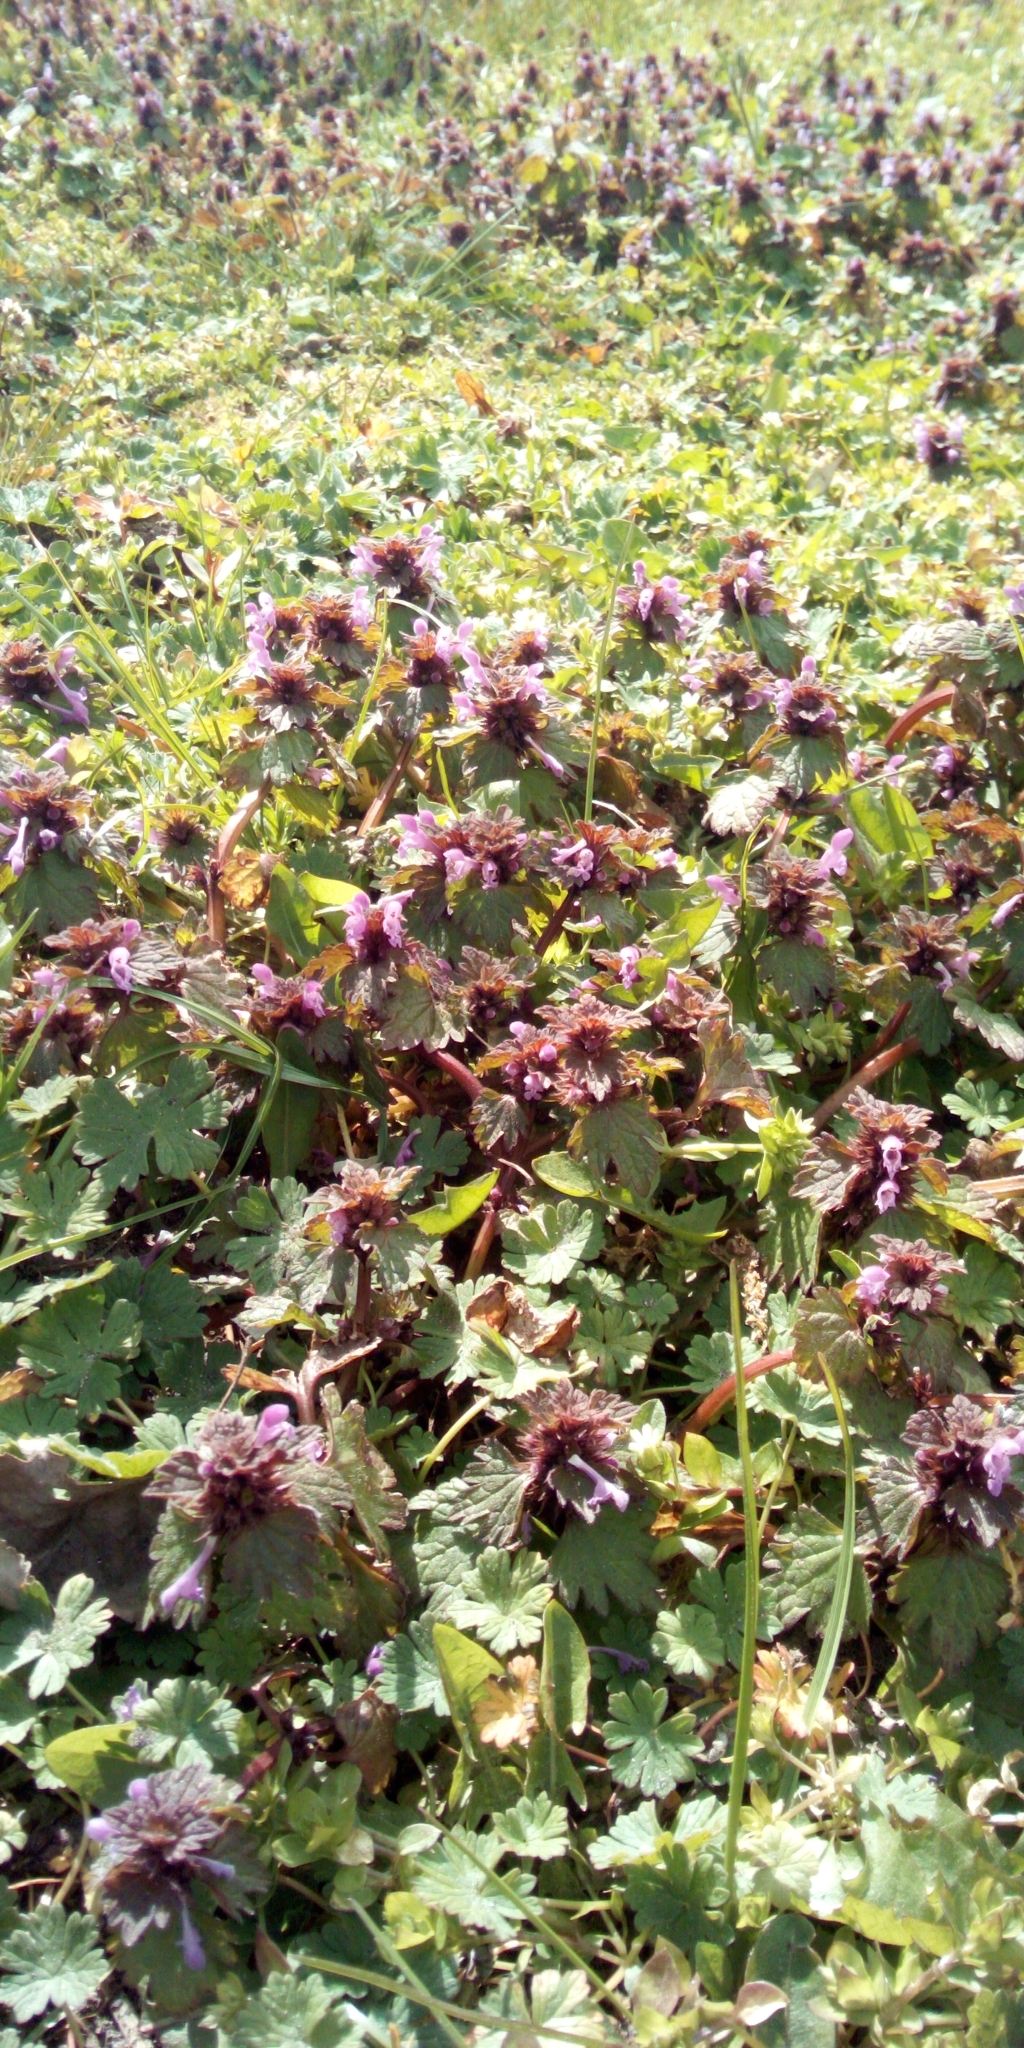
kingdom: Plantae
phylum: Tracheophyta
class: Magnoliopsida
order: Lamiales
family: Lamiaceae
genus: Lamium
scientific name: Lamium hybridum
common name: Cut-leaved dead-nettle
